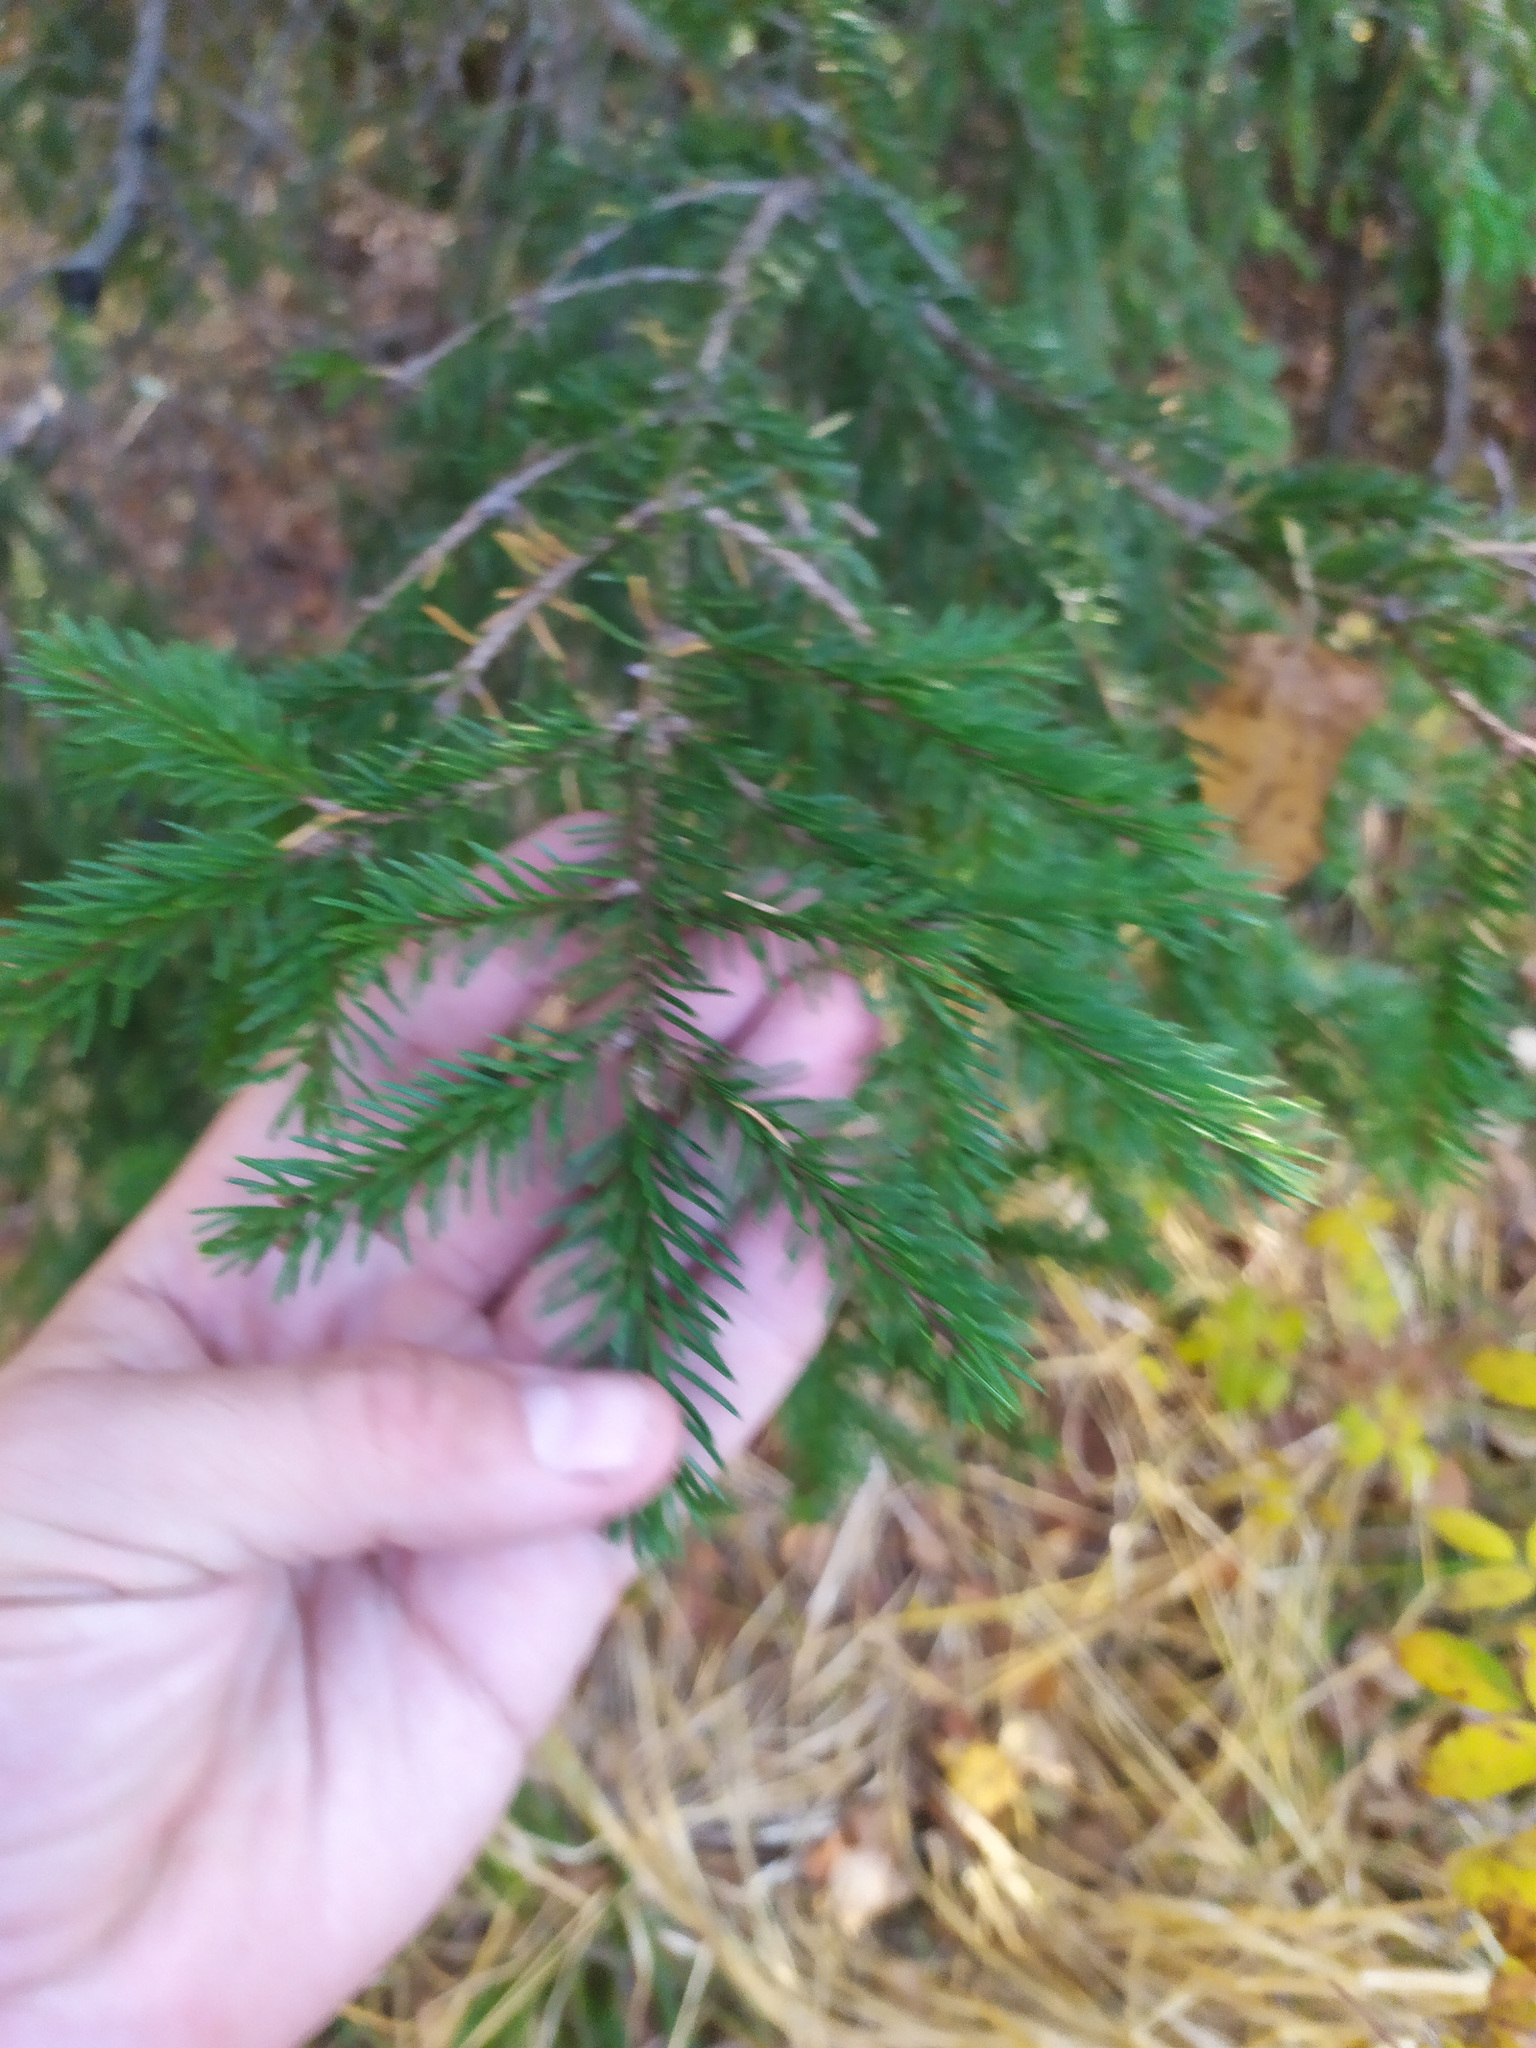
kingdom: Plantae
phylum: Tracheophyta
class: Pinopsida
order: Pinales
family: Pinaceae
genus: Picea
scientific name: Picea
